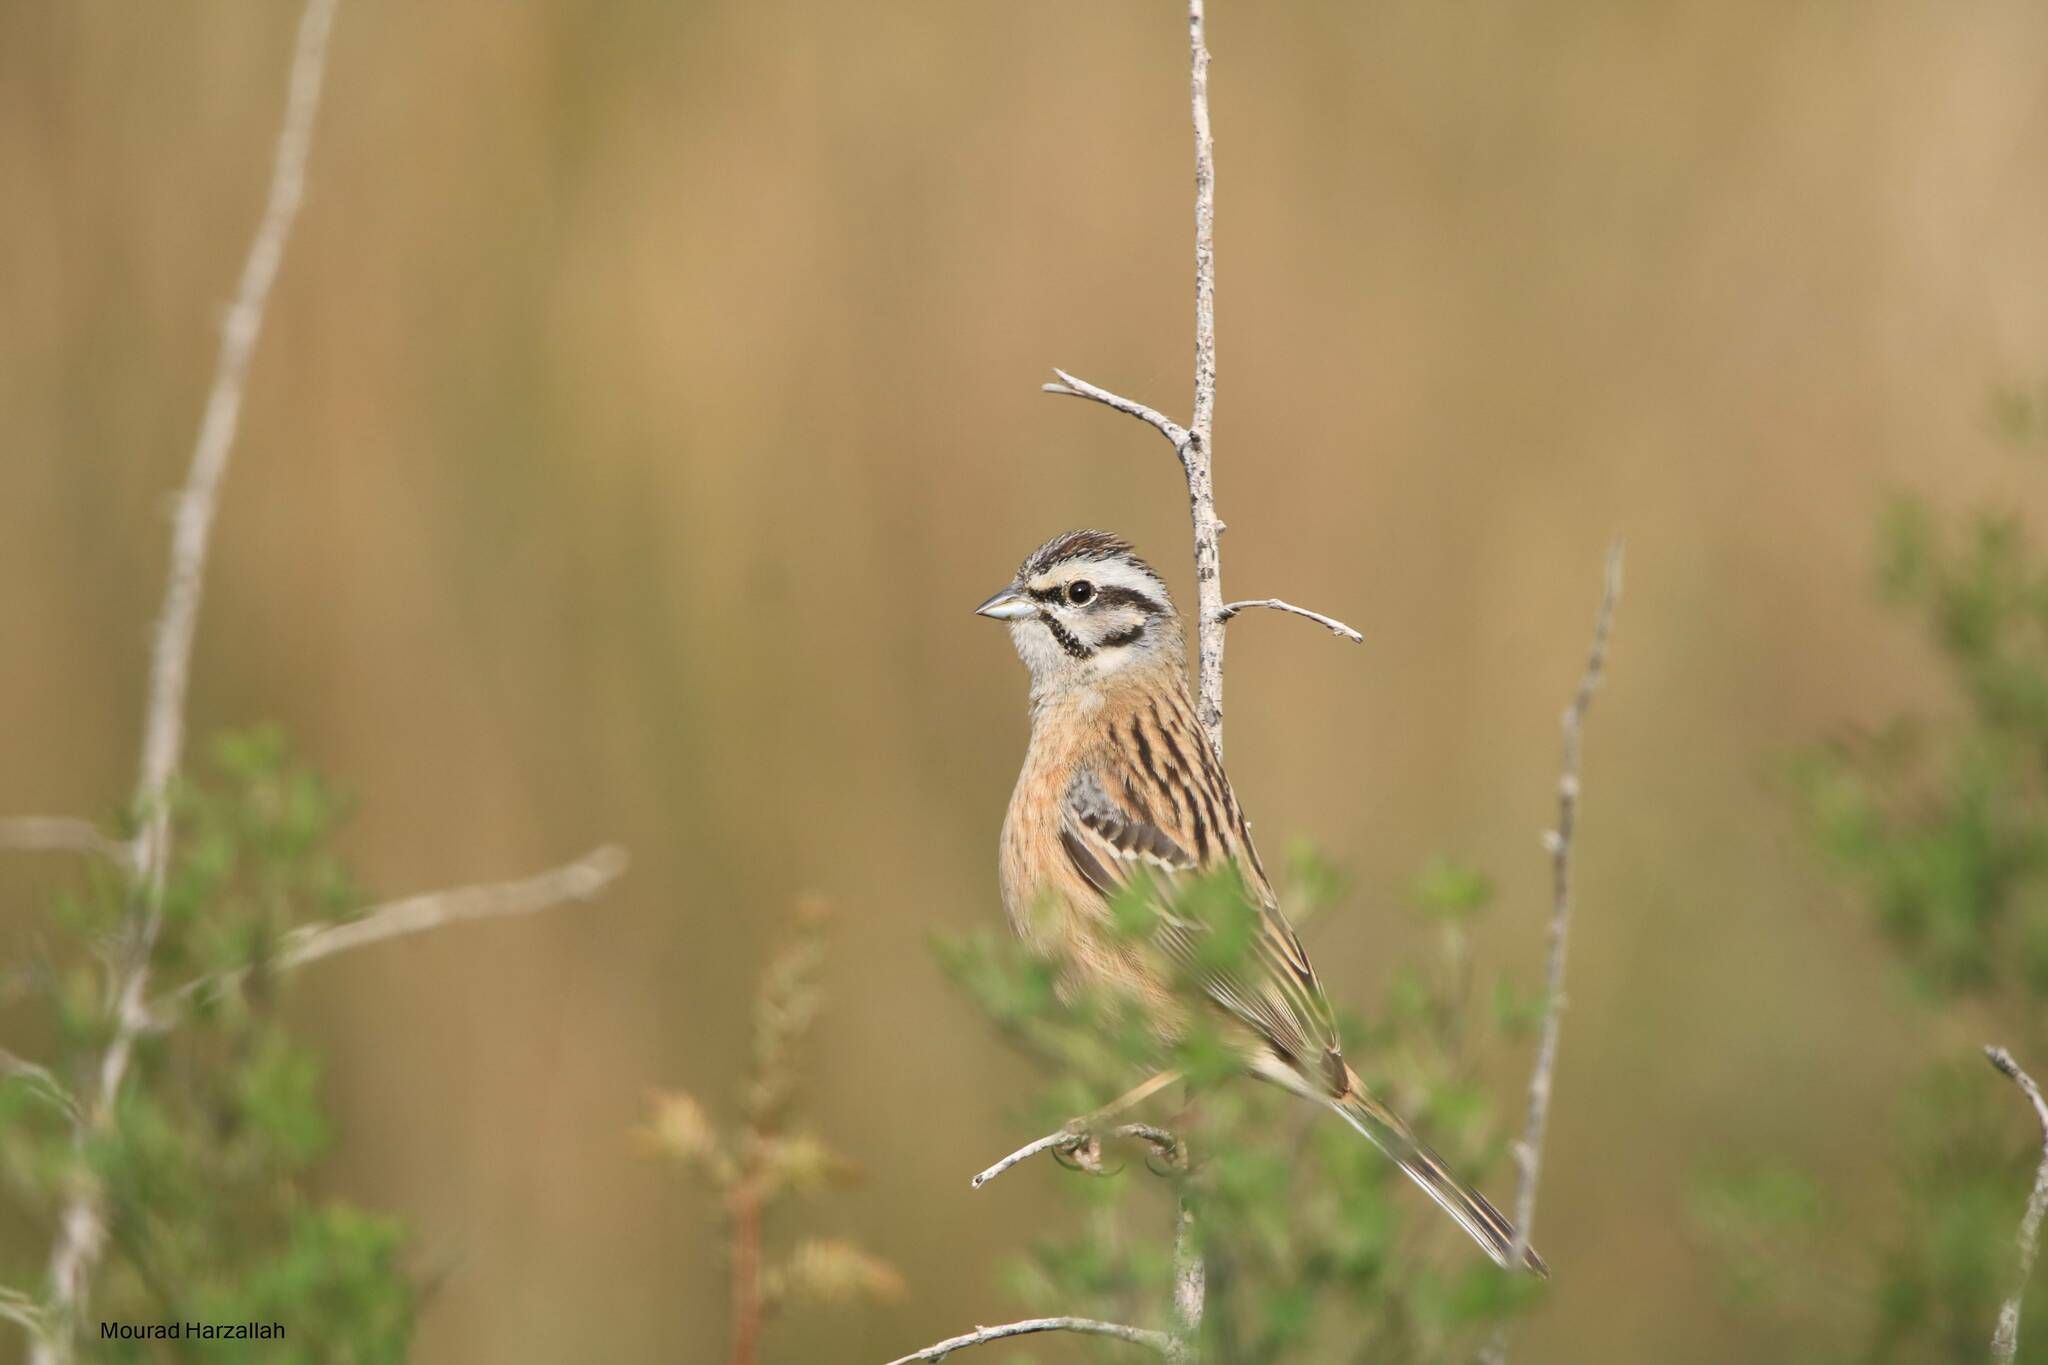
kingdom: Animalia
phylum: Chordata
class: Aves
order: Passeriformes
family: Emberizidae
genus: Emberiza
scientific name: Emberiza cia
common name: Rock bunting
